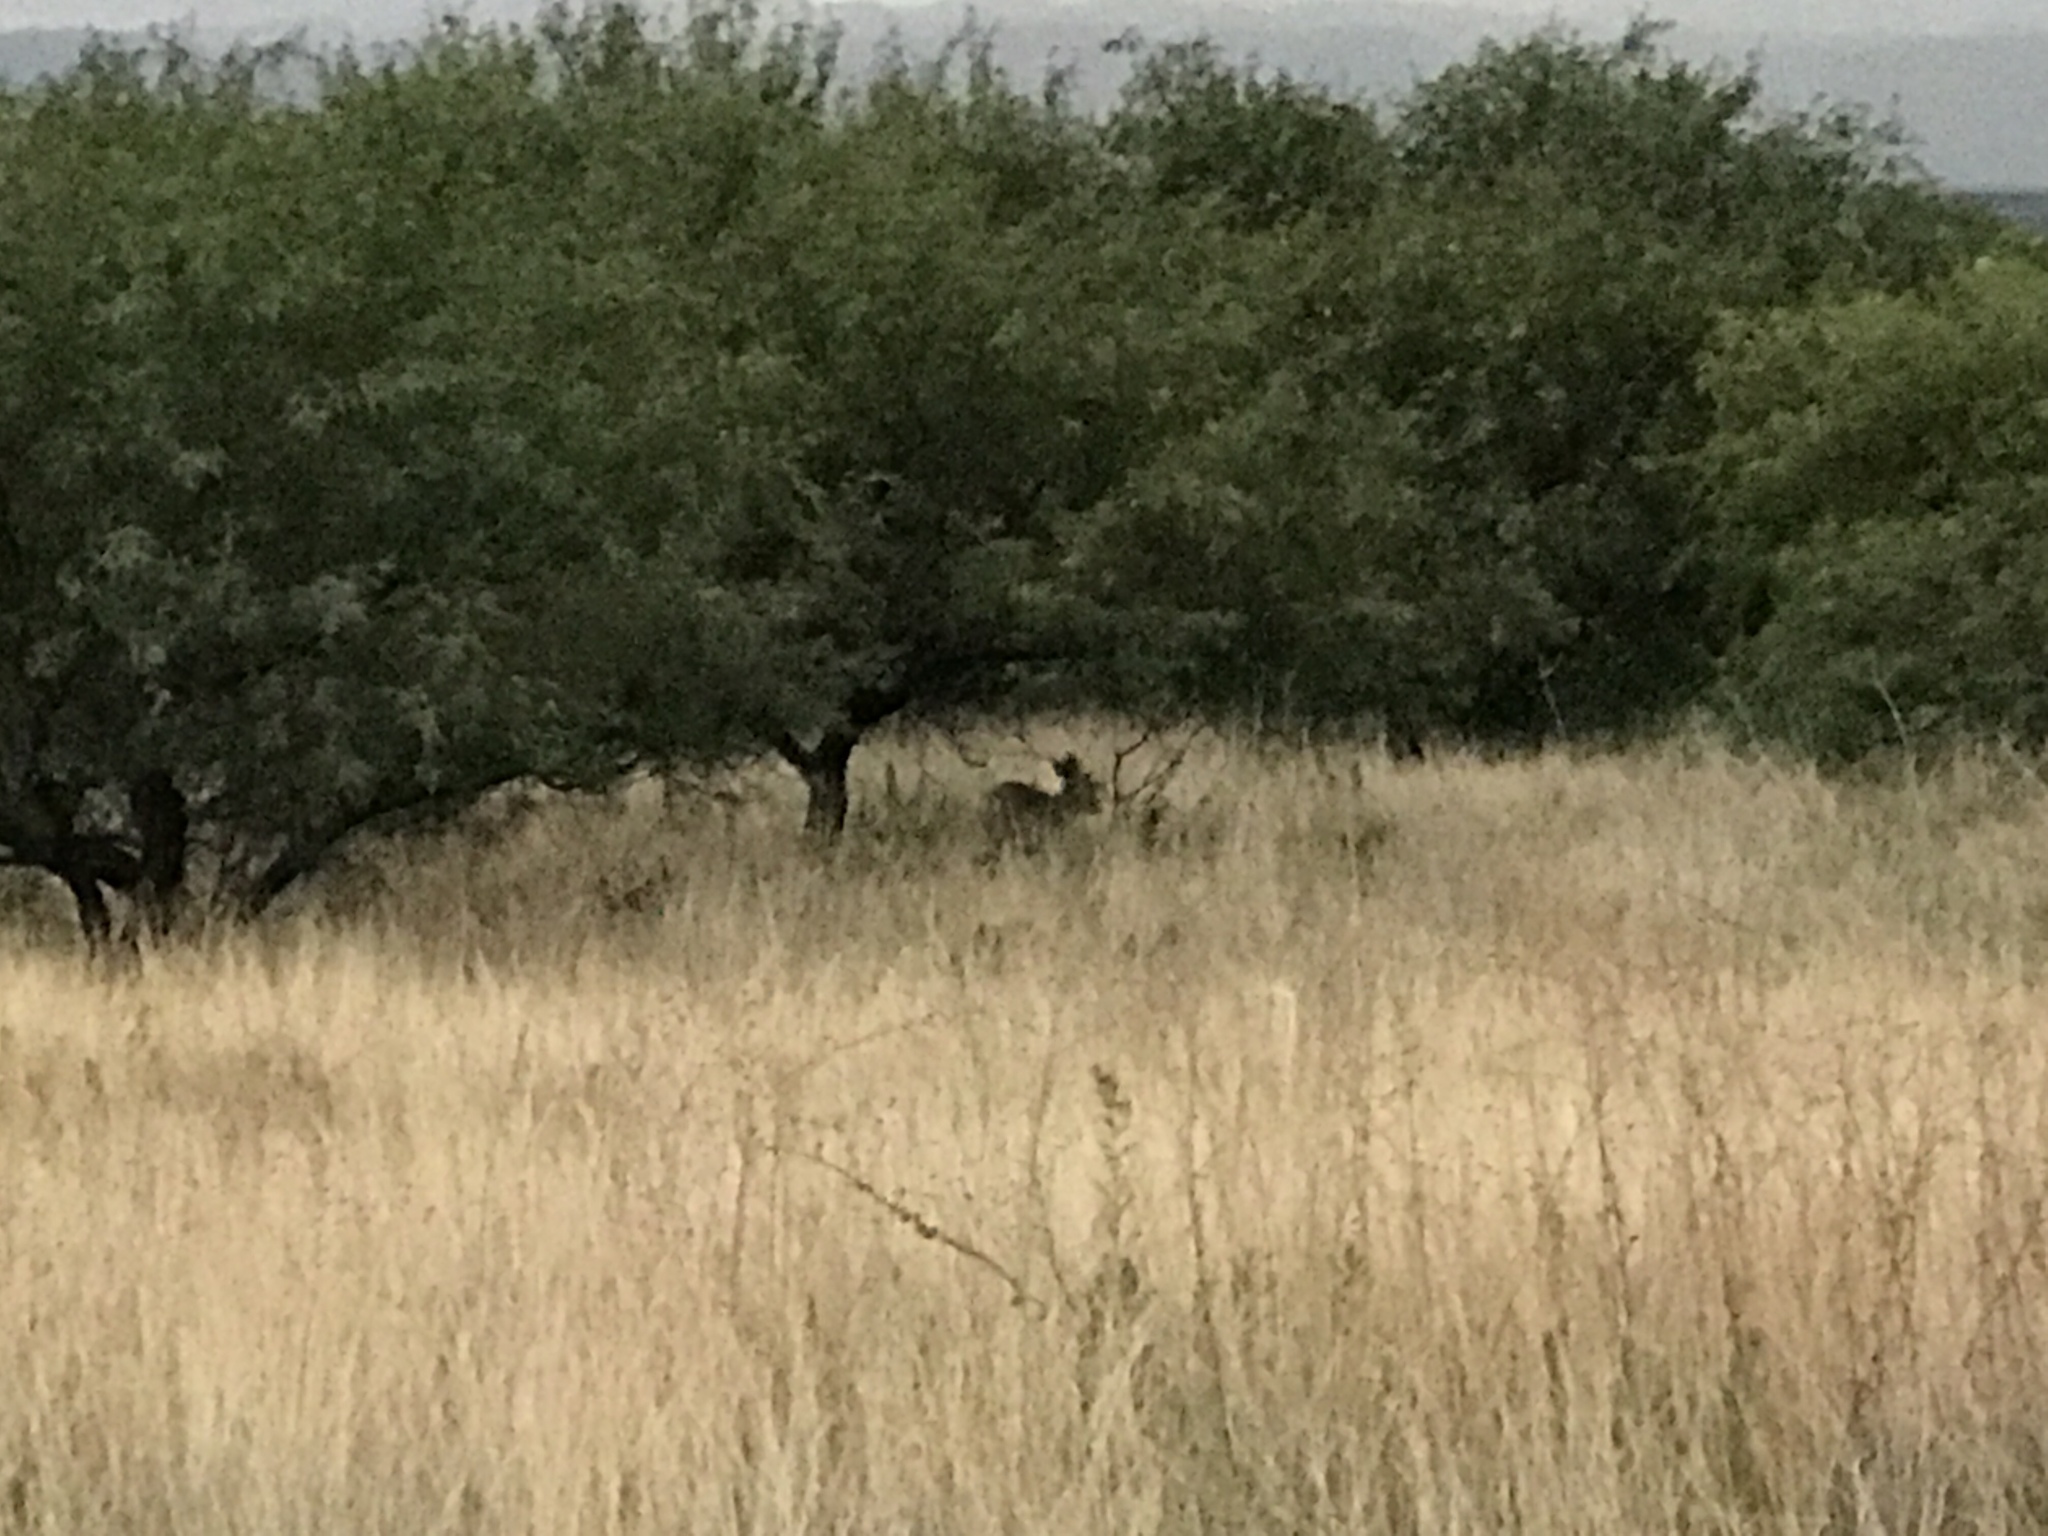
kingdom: Animalia
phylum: Chordata
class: Mammalia
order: Artiodactyla
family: Cervidae
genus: Odocoileus
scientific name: Odocoileus virginianus
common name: White-tailed deer
